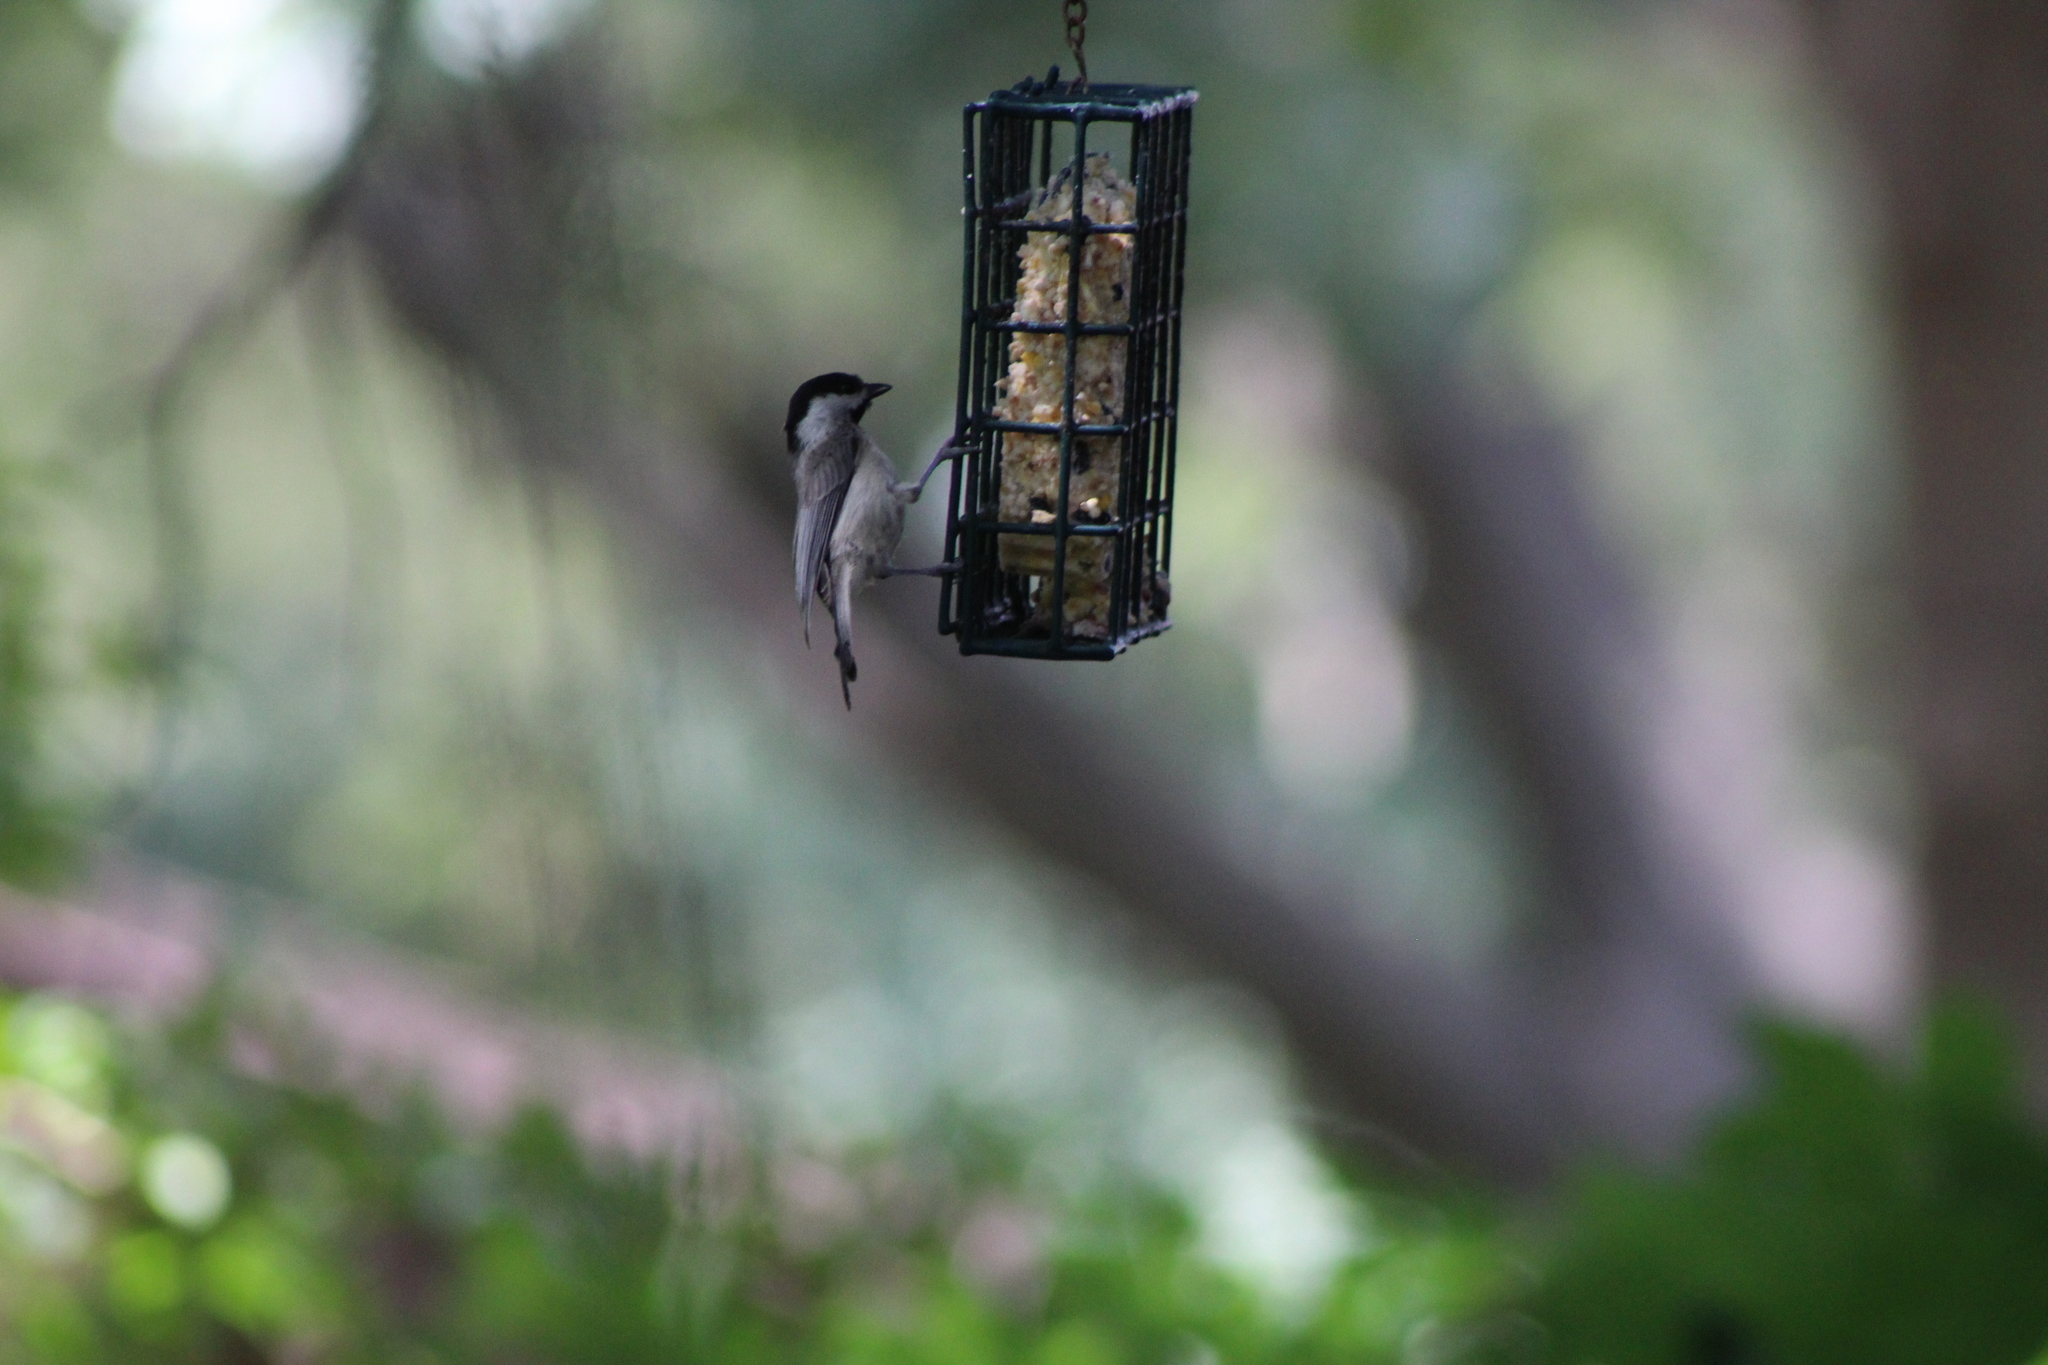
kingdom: Animalia
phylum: Chordata
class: Aves
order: Passeriformes
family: Paridae
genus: Poecile
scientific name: Poecile carolinensis
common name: Carolina chickadee
